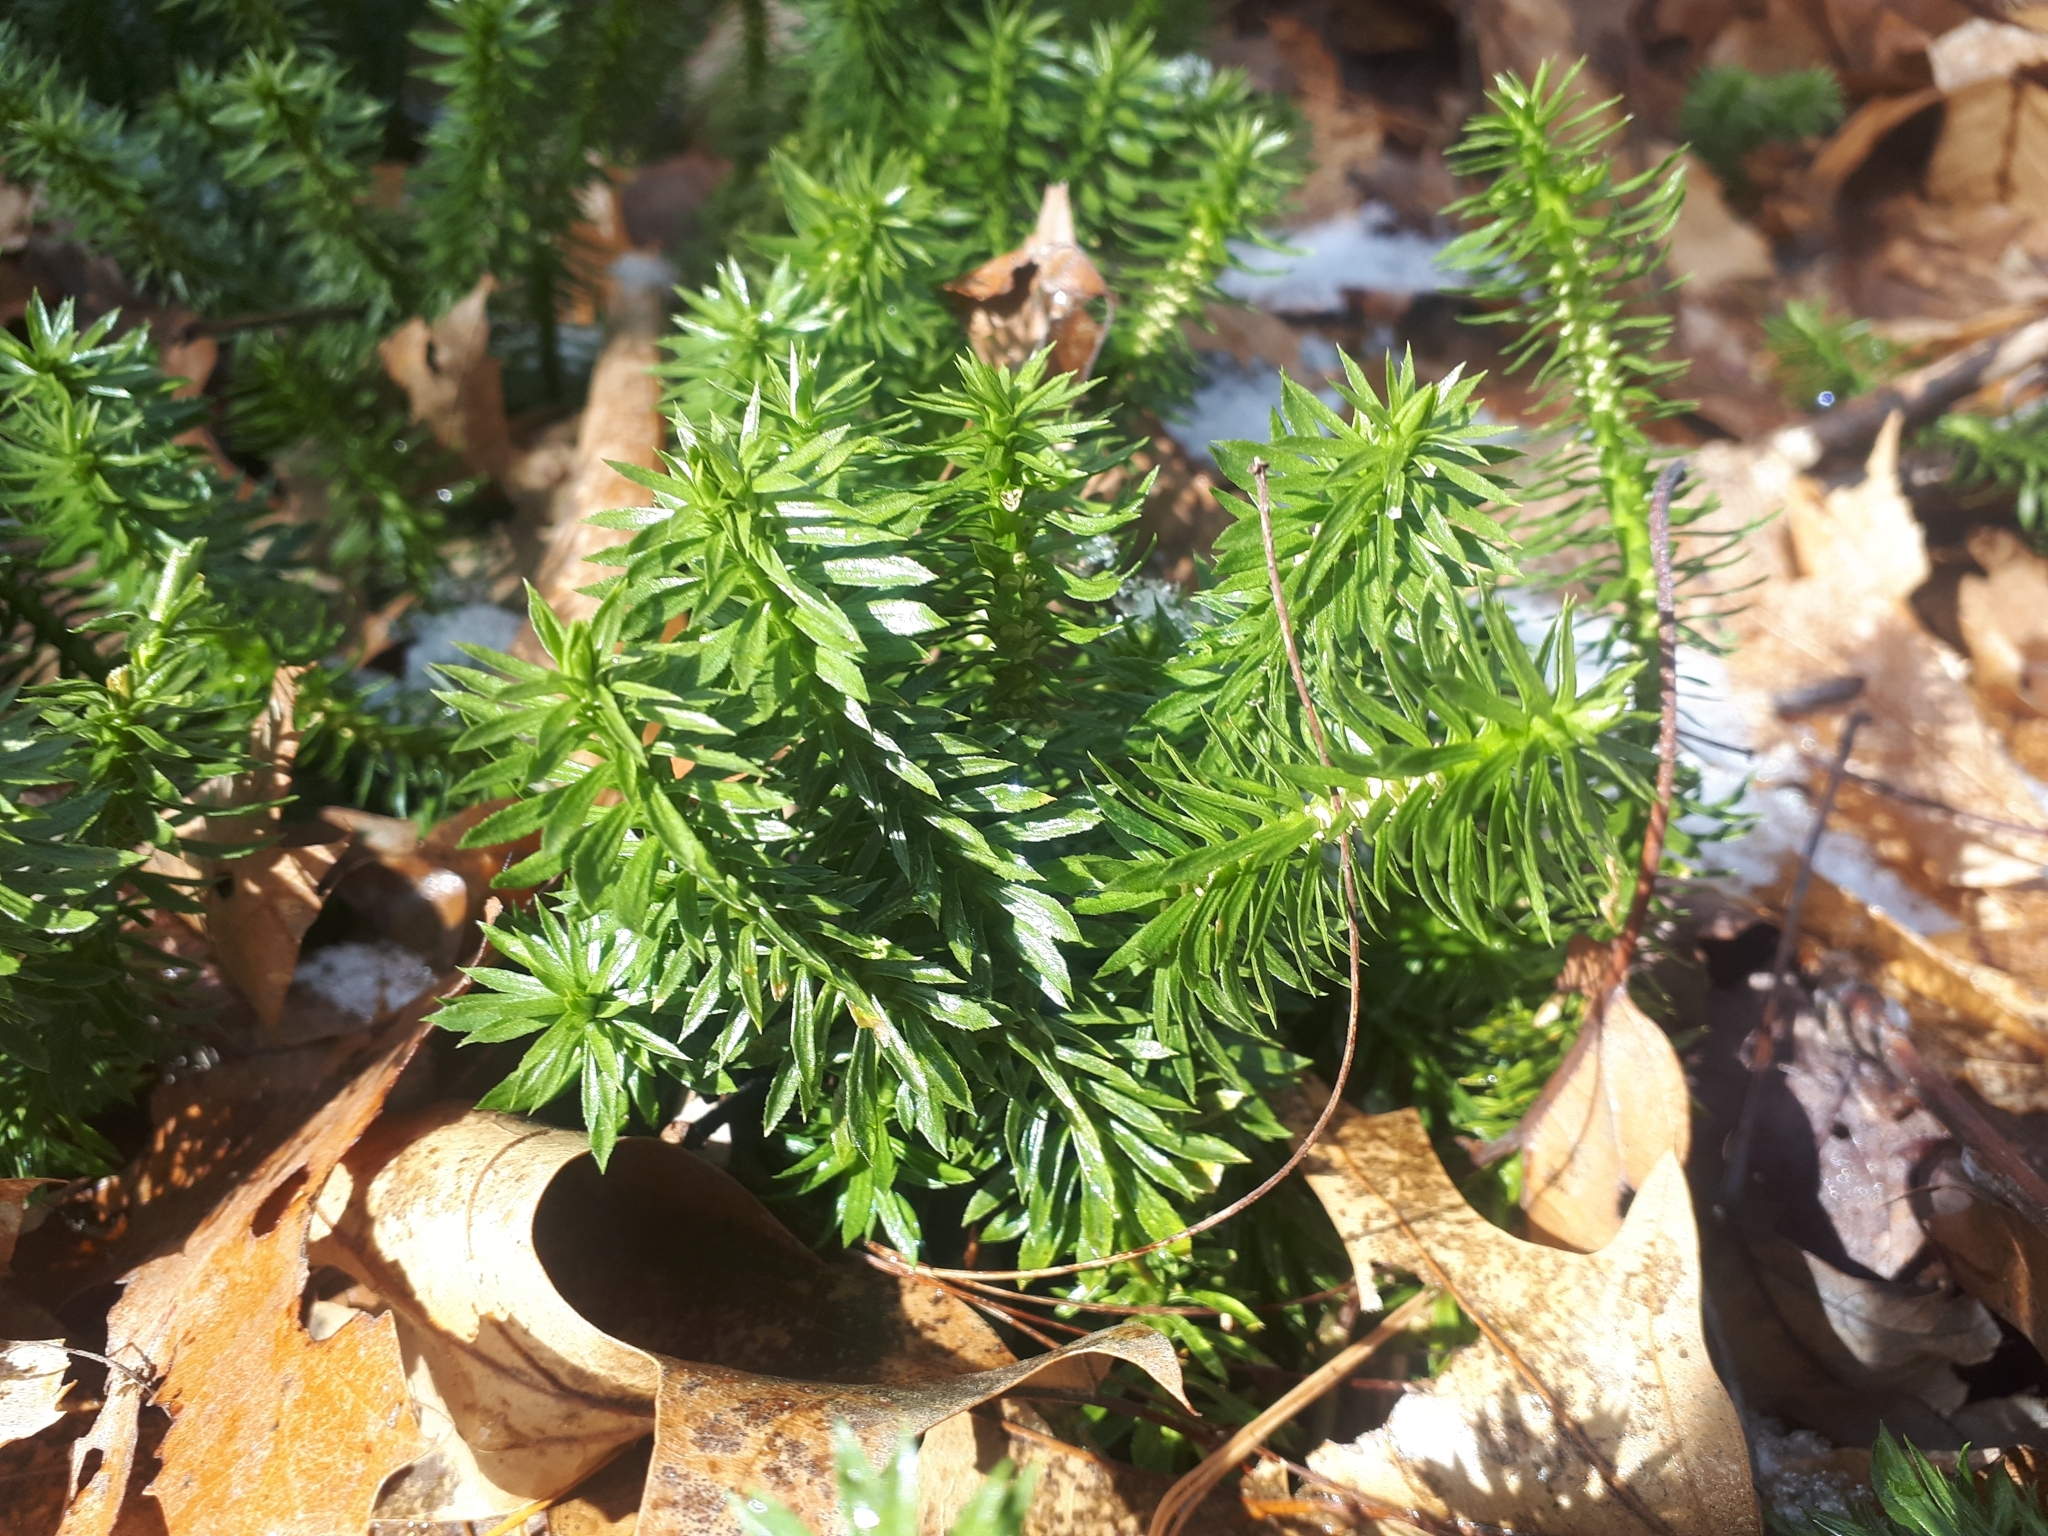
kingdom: Plantae
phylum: Tracheophyta
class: Lycopodiopsida
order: Lycopodiales
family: Lycopodiaceae
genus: Huperzia
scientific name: Huperzia lucidula
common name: Shining clubmoss
